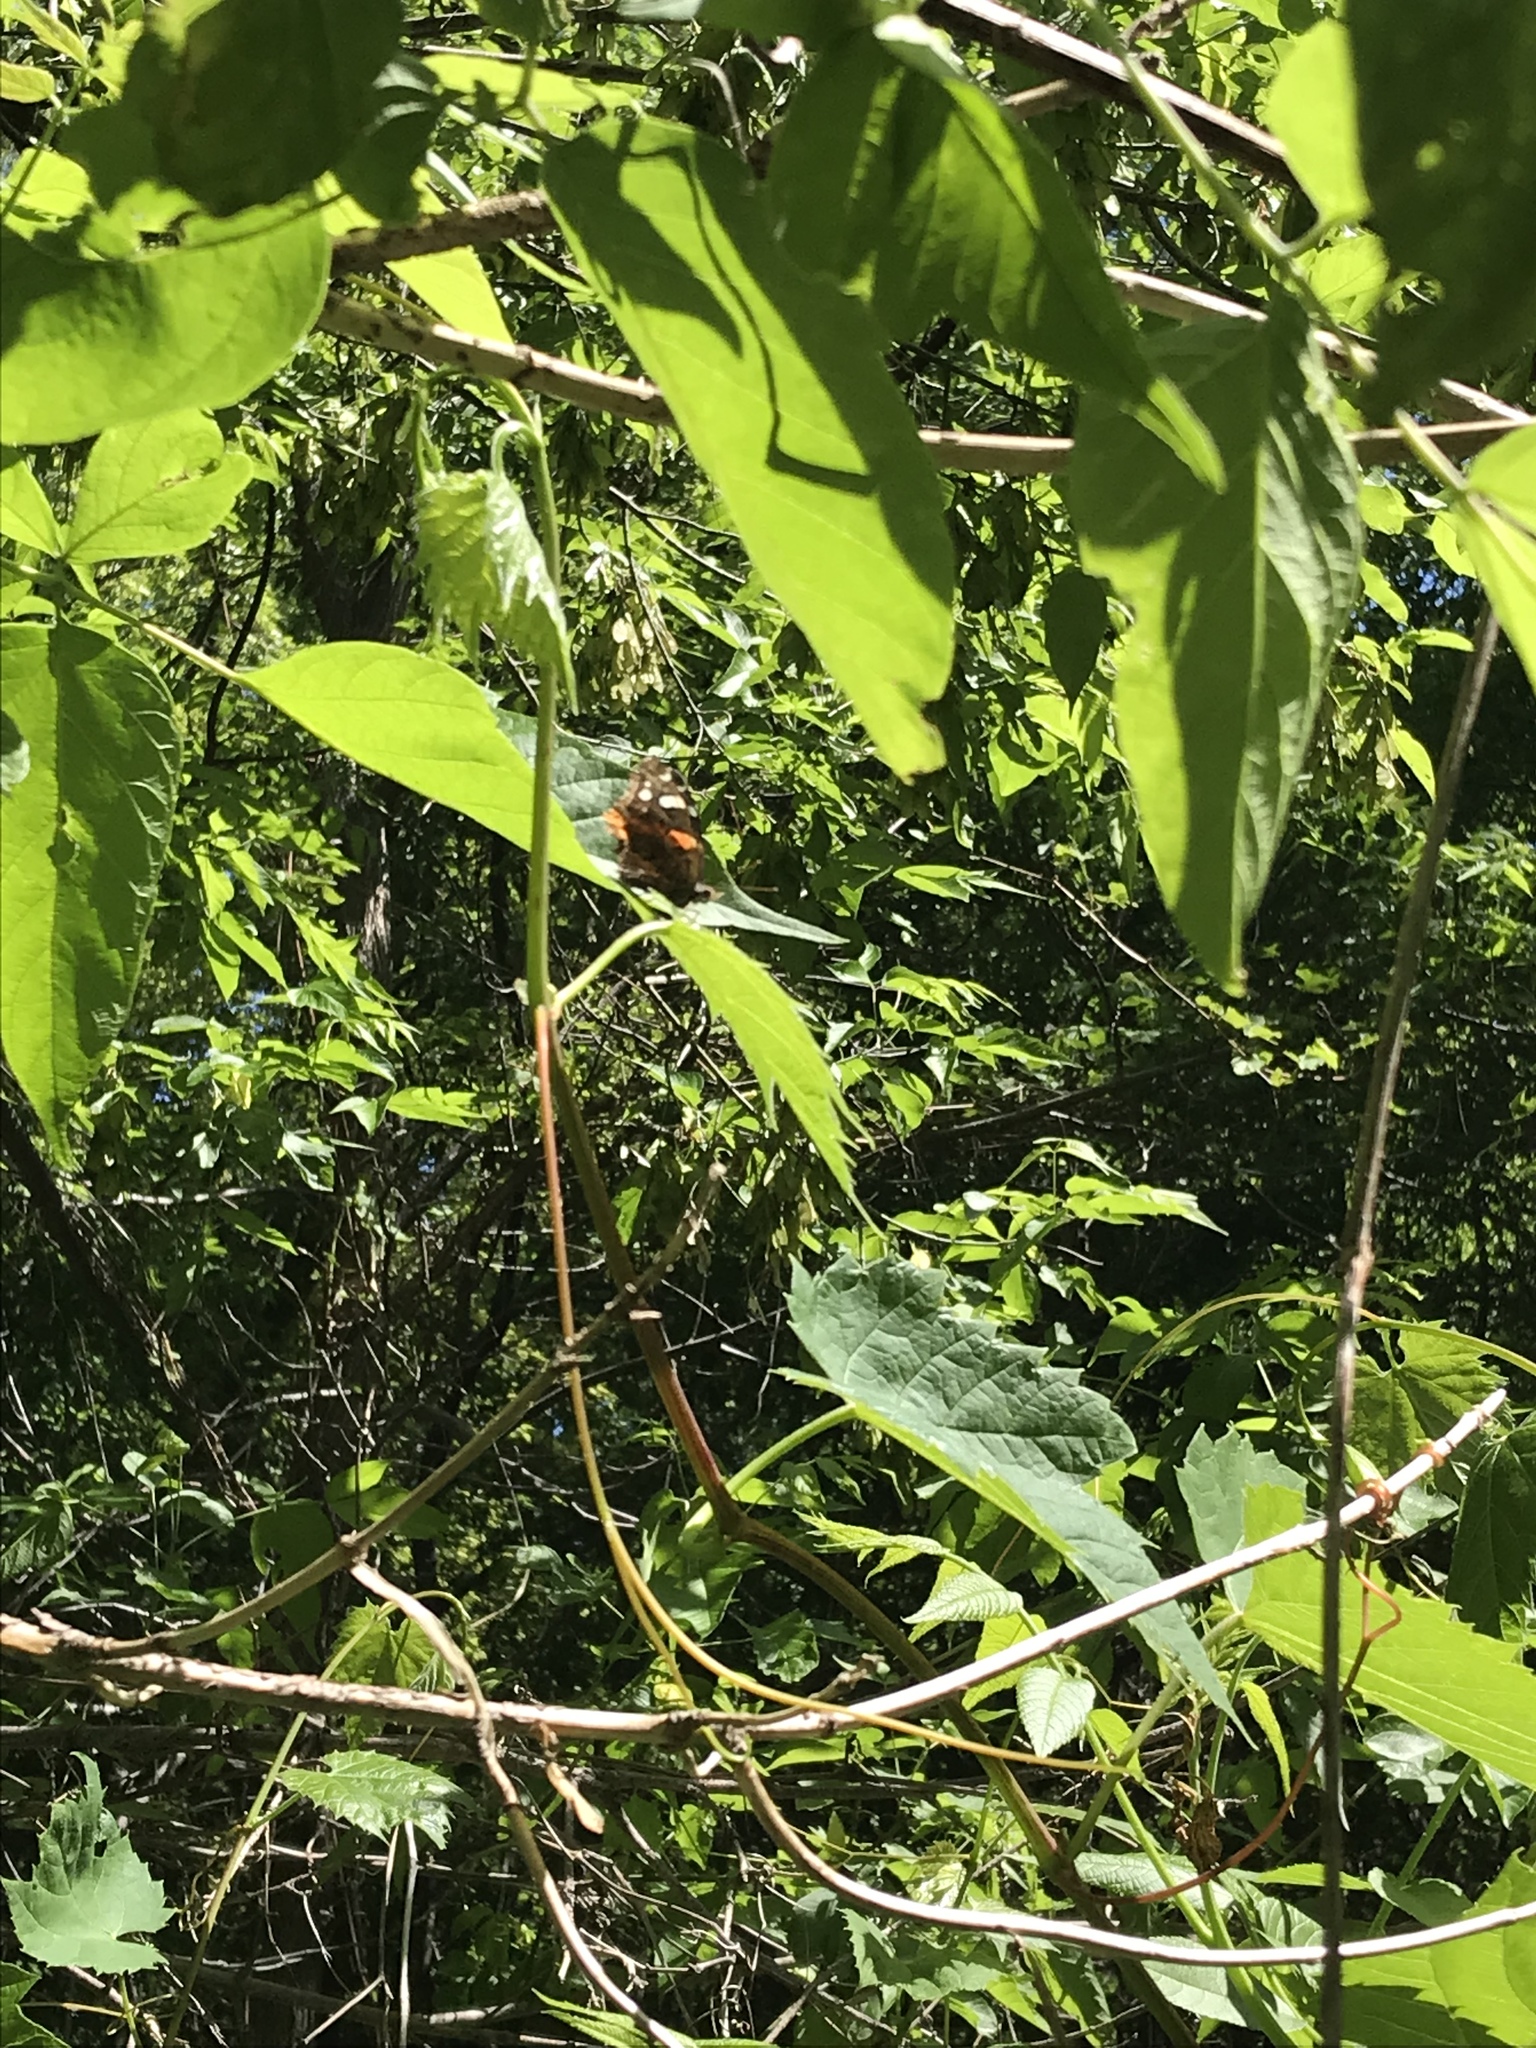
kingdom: Animalia
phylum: Arthropoda
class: Insecta
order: Lepidoptera
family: Nymphalidae
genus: Vanessa
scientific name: Vanessa atalanta
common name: Red admiral
